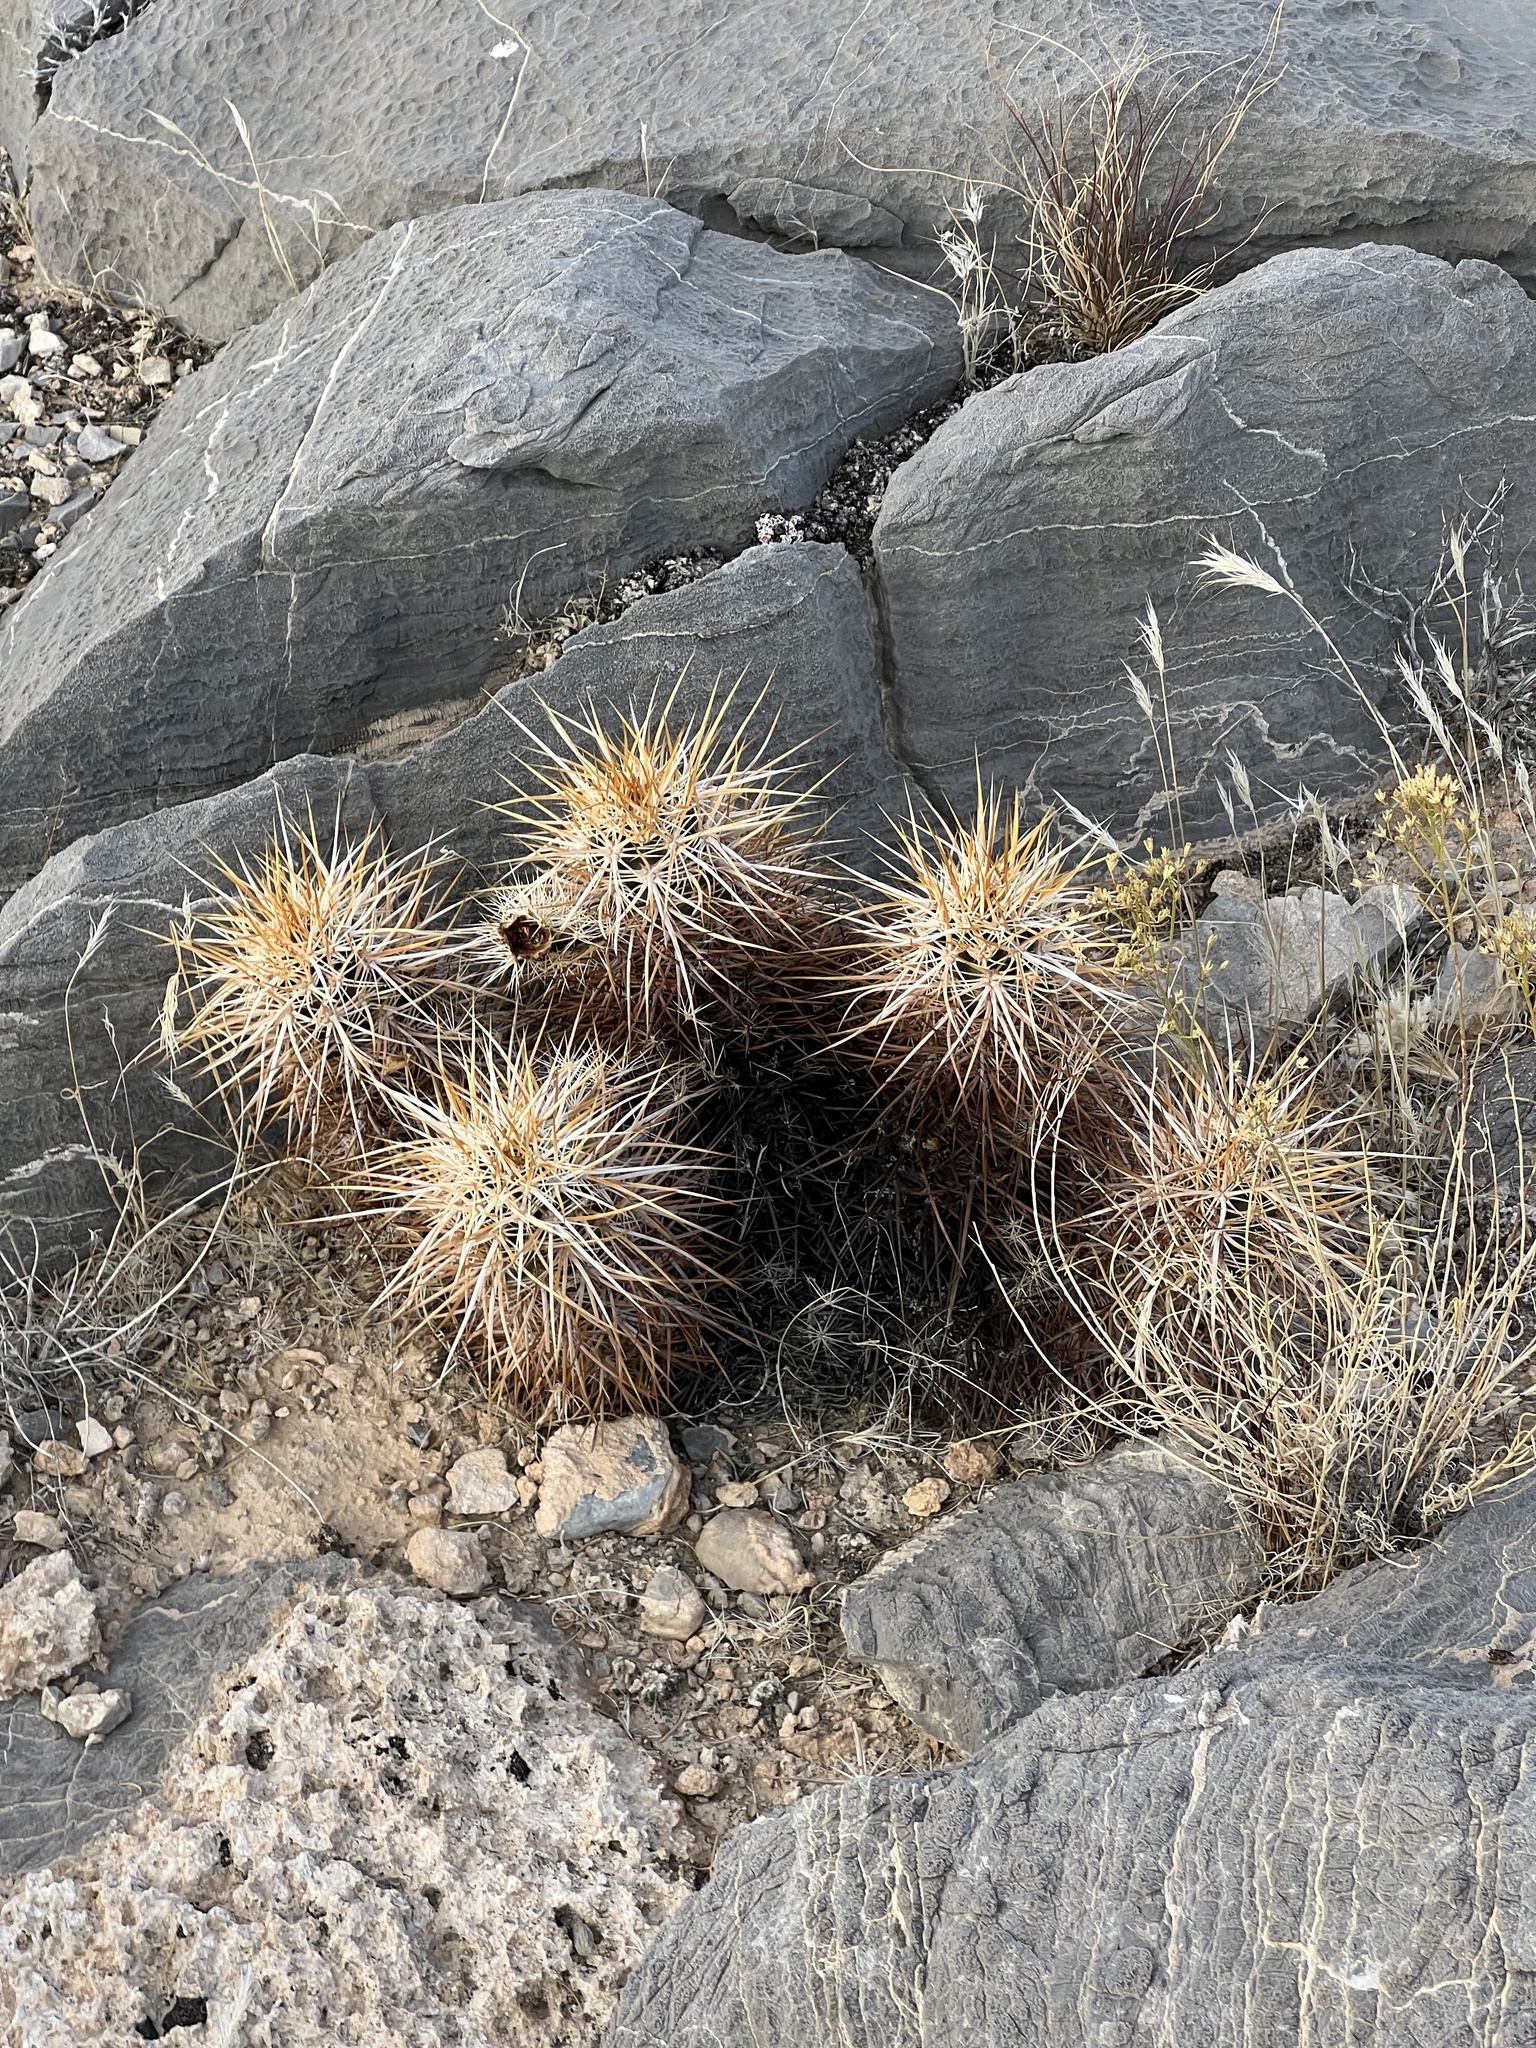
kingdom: Plantae
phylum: Tracheophyta
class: Magnoliopsida
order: Caryophyllales
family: Cactaceae
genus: Echinocereus
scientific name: Echinocereus engelmannii
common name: Engelmann's hedgehog cactus
